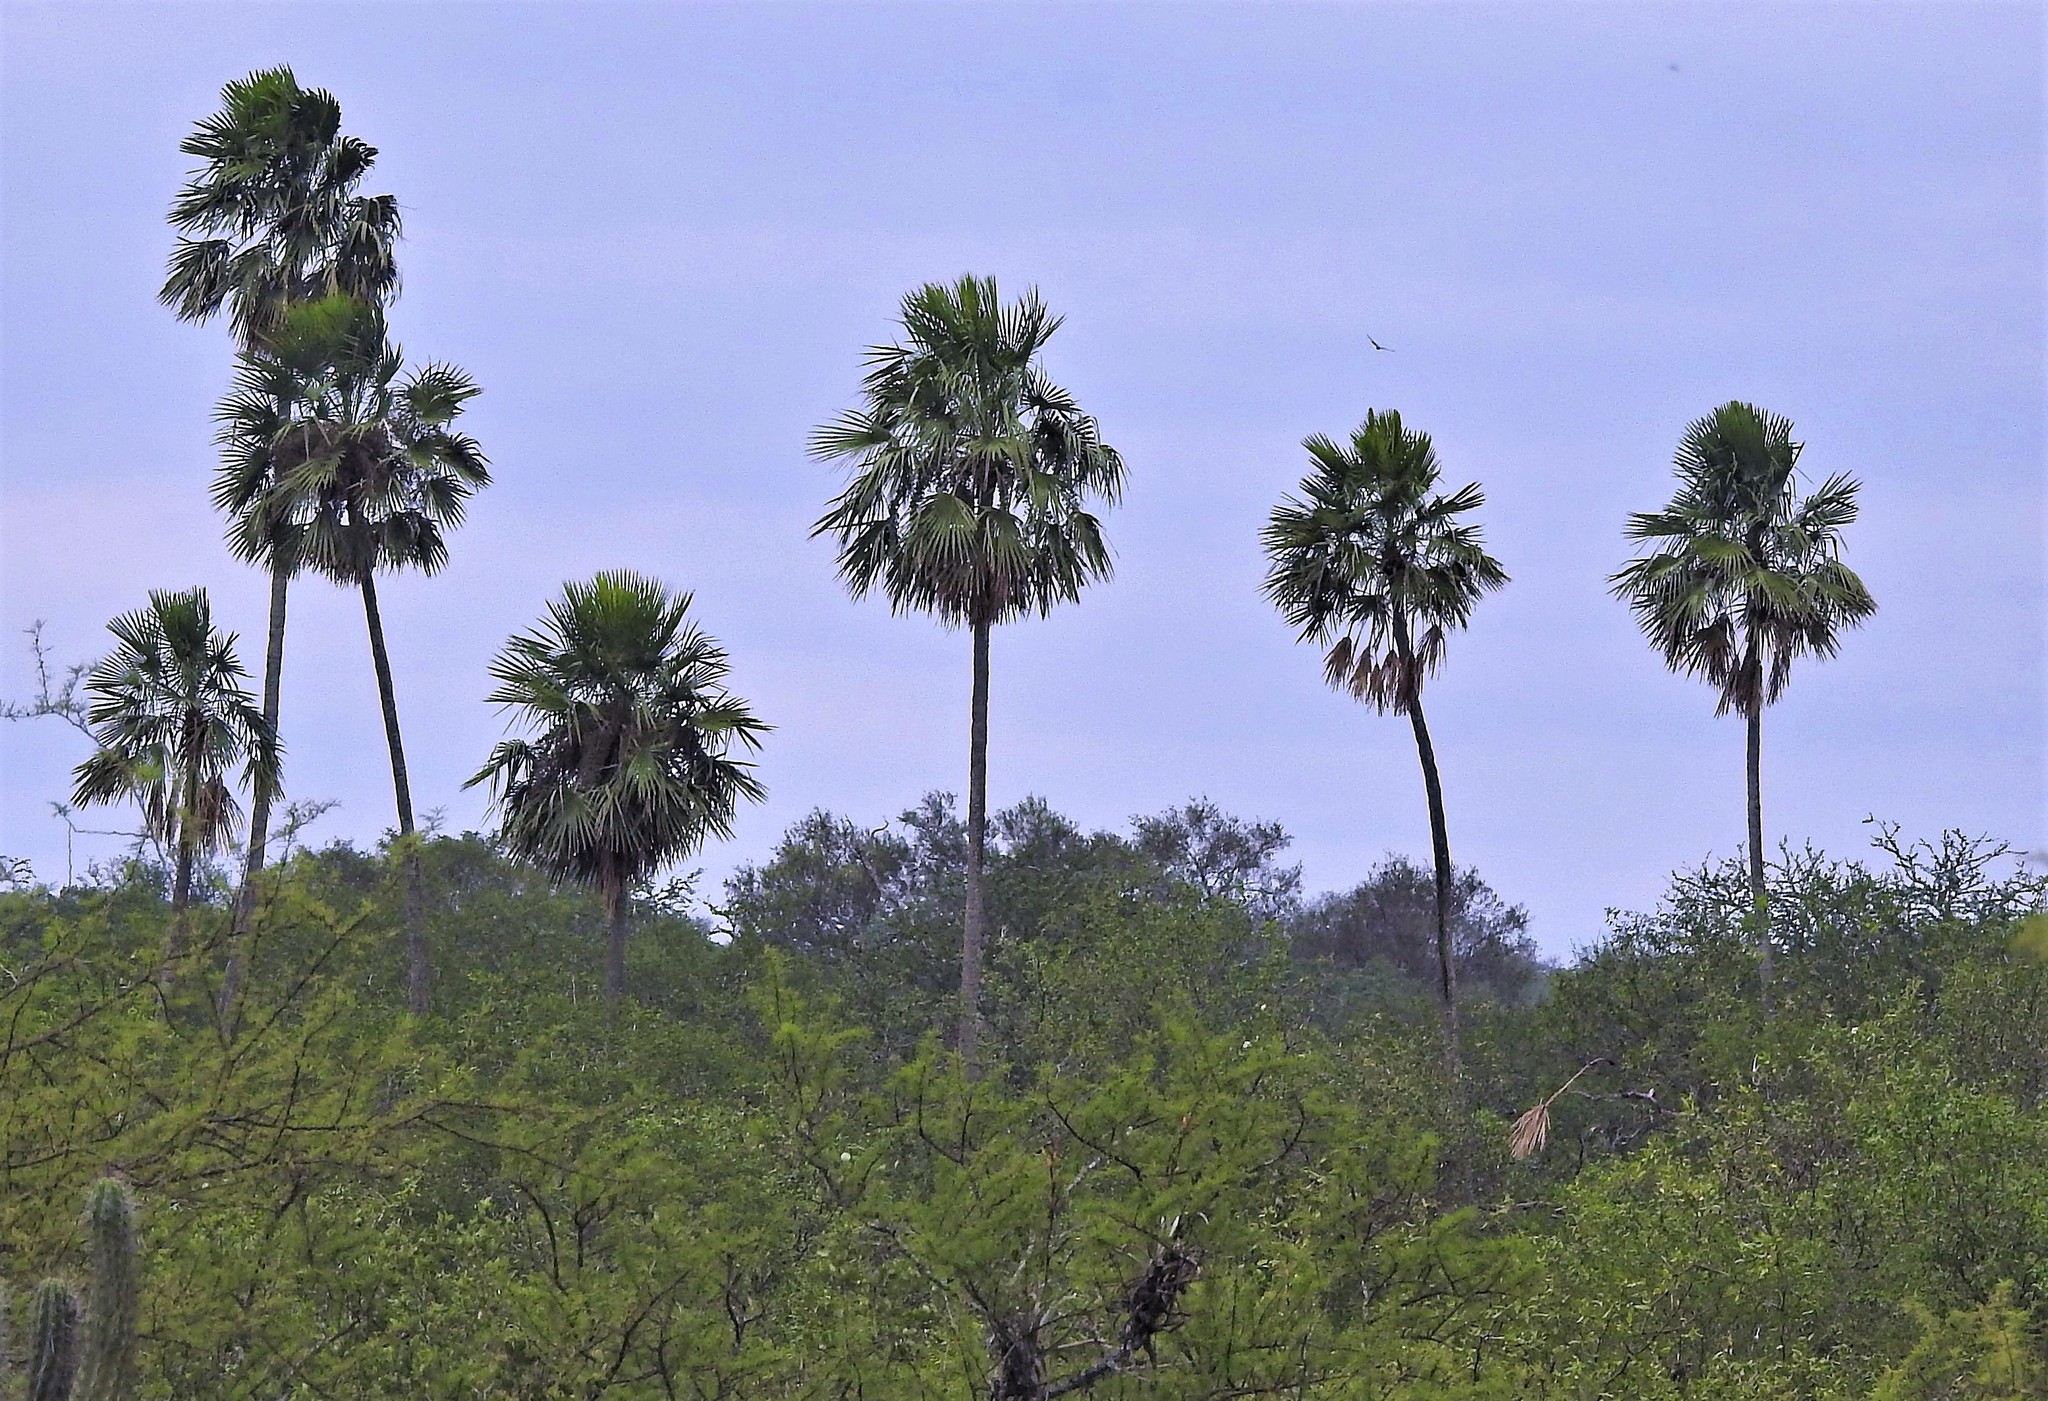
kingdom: Plantae
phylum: Tracheophyta
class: Liliopsida
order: Arecales
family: Arecaceae
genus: Copernicia
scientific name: Copernicia alba
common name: Caranday palm
